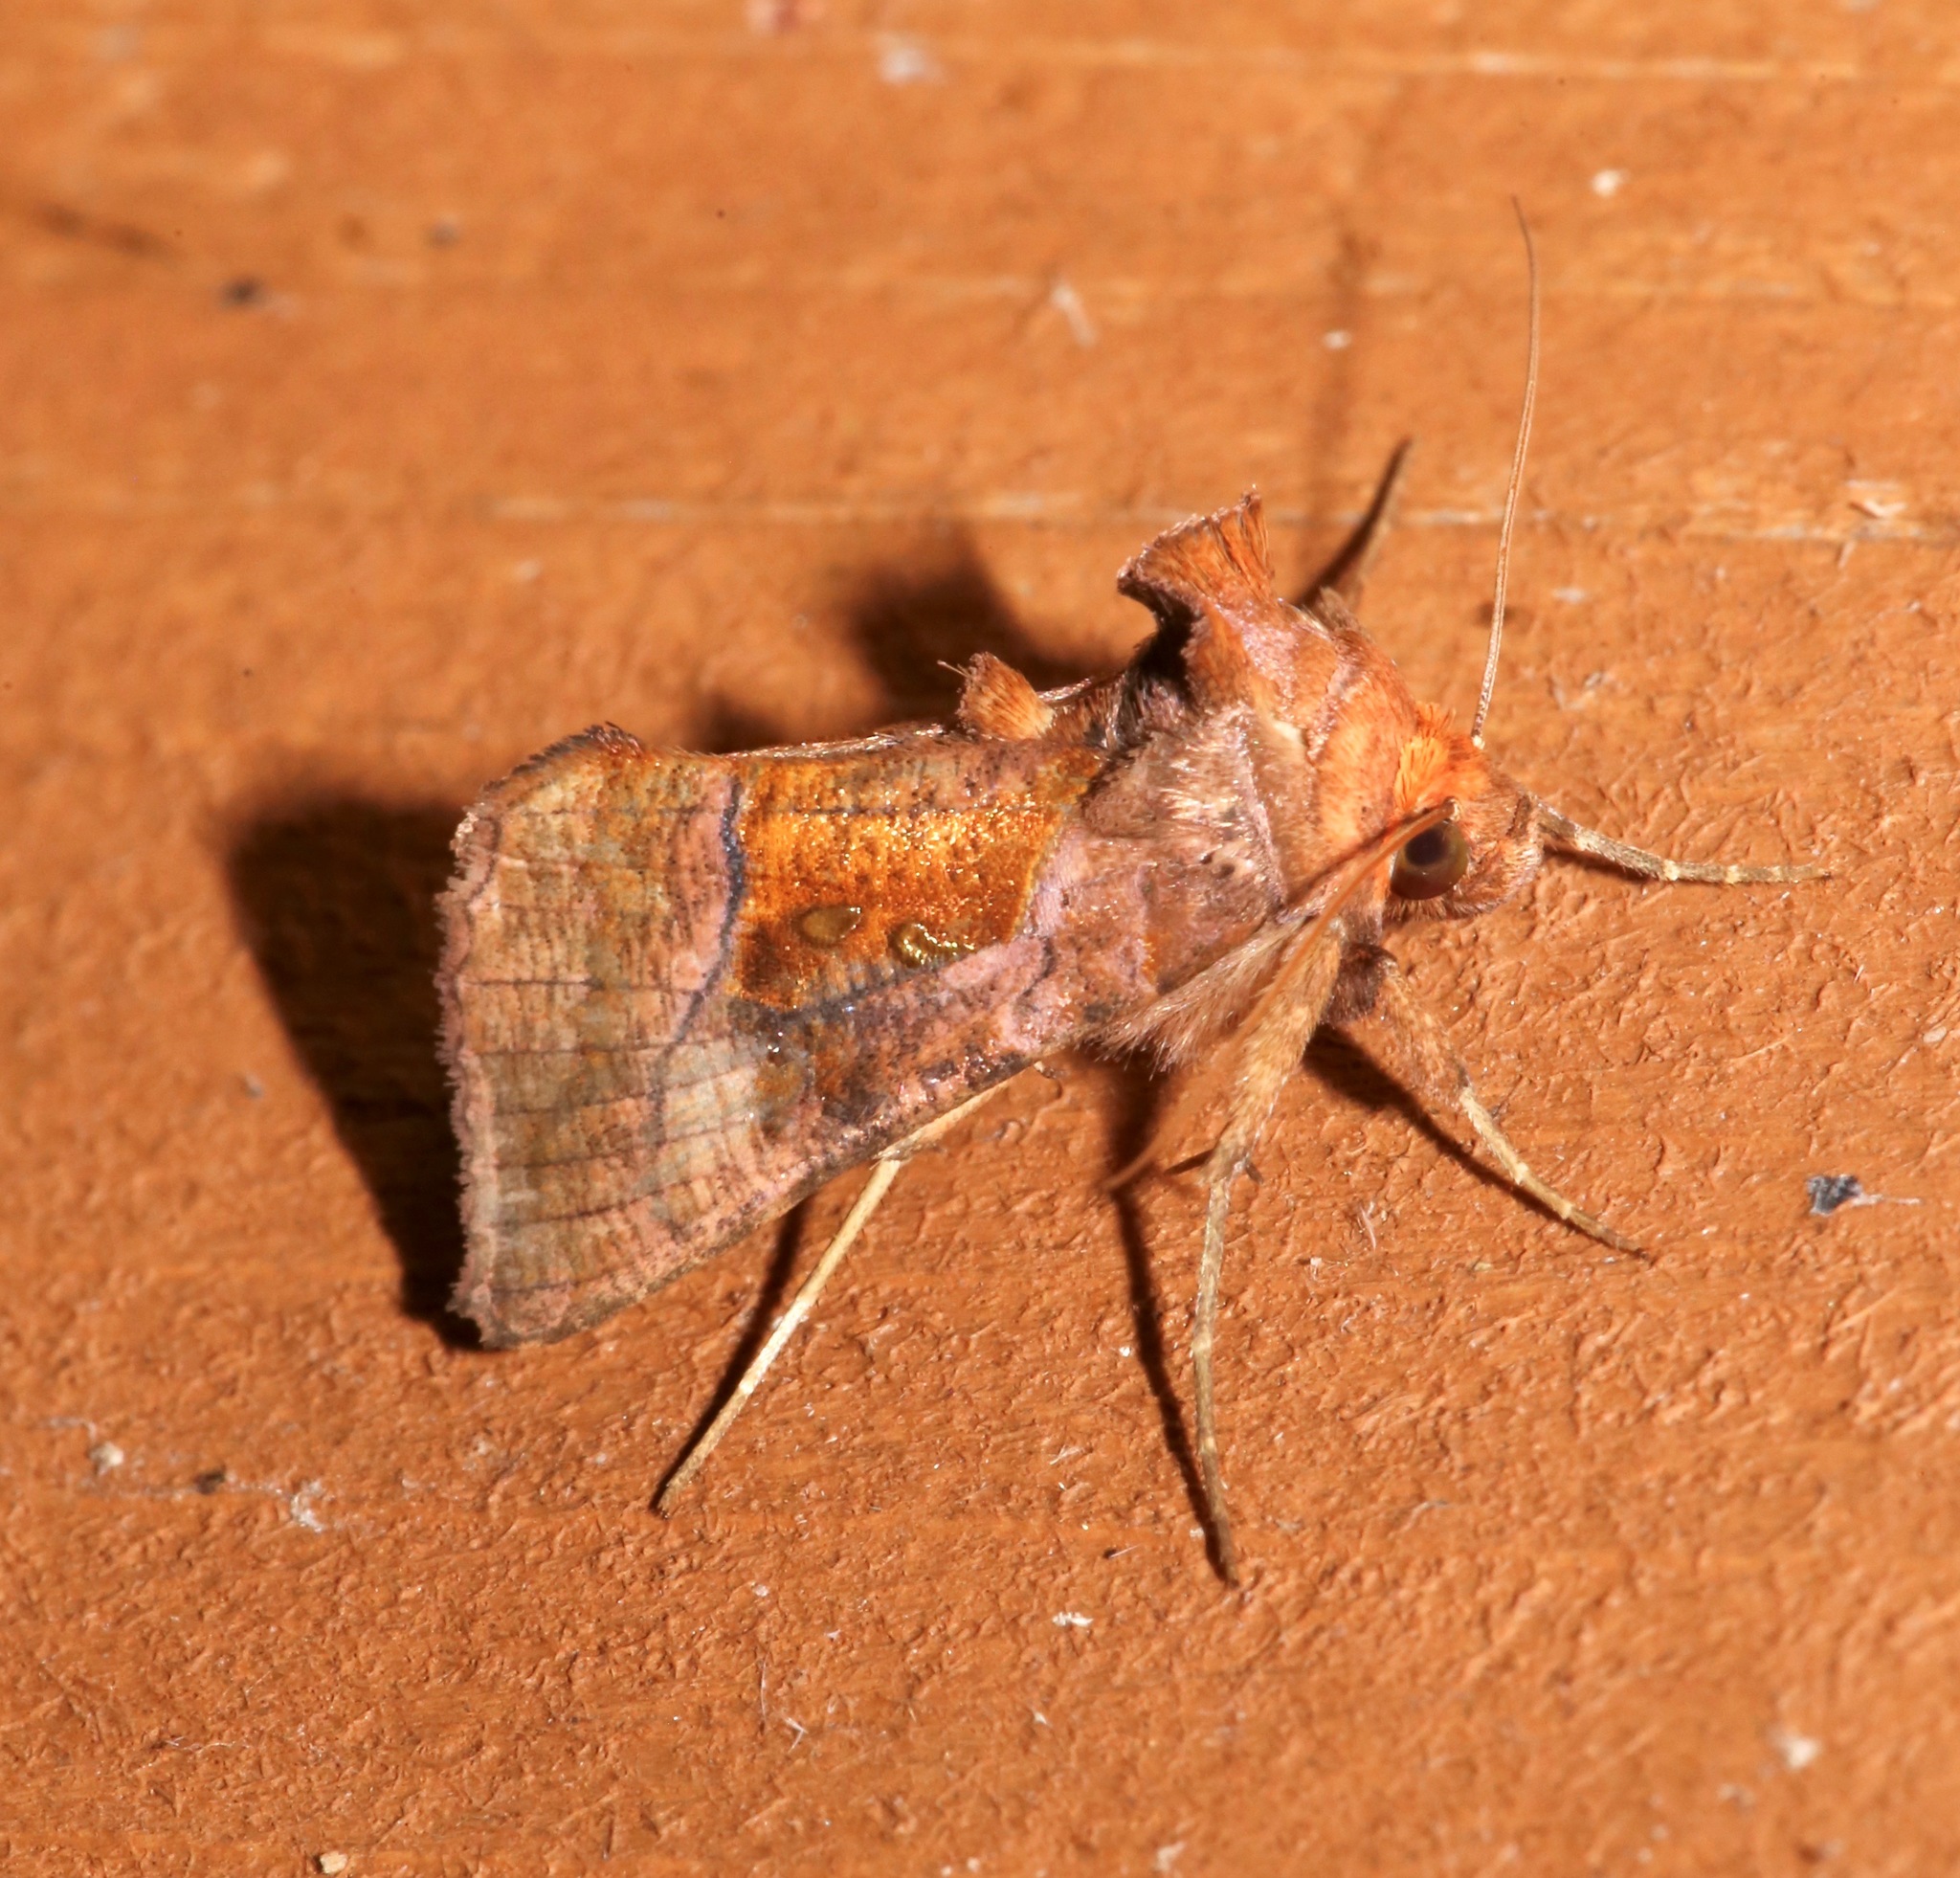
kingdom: Animalia
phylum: Arthropoda
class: Insecta
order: Lepidoptera
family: Noctuidae
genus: Enigmogramma
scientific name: Enigmogramma basigera
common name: Pink-washed looper moth
